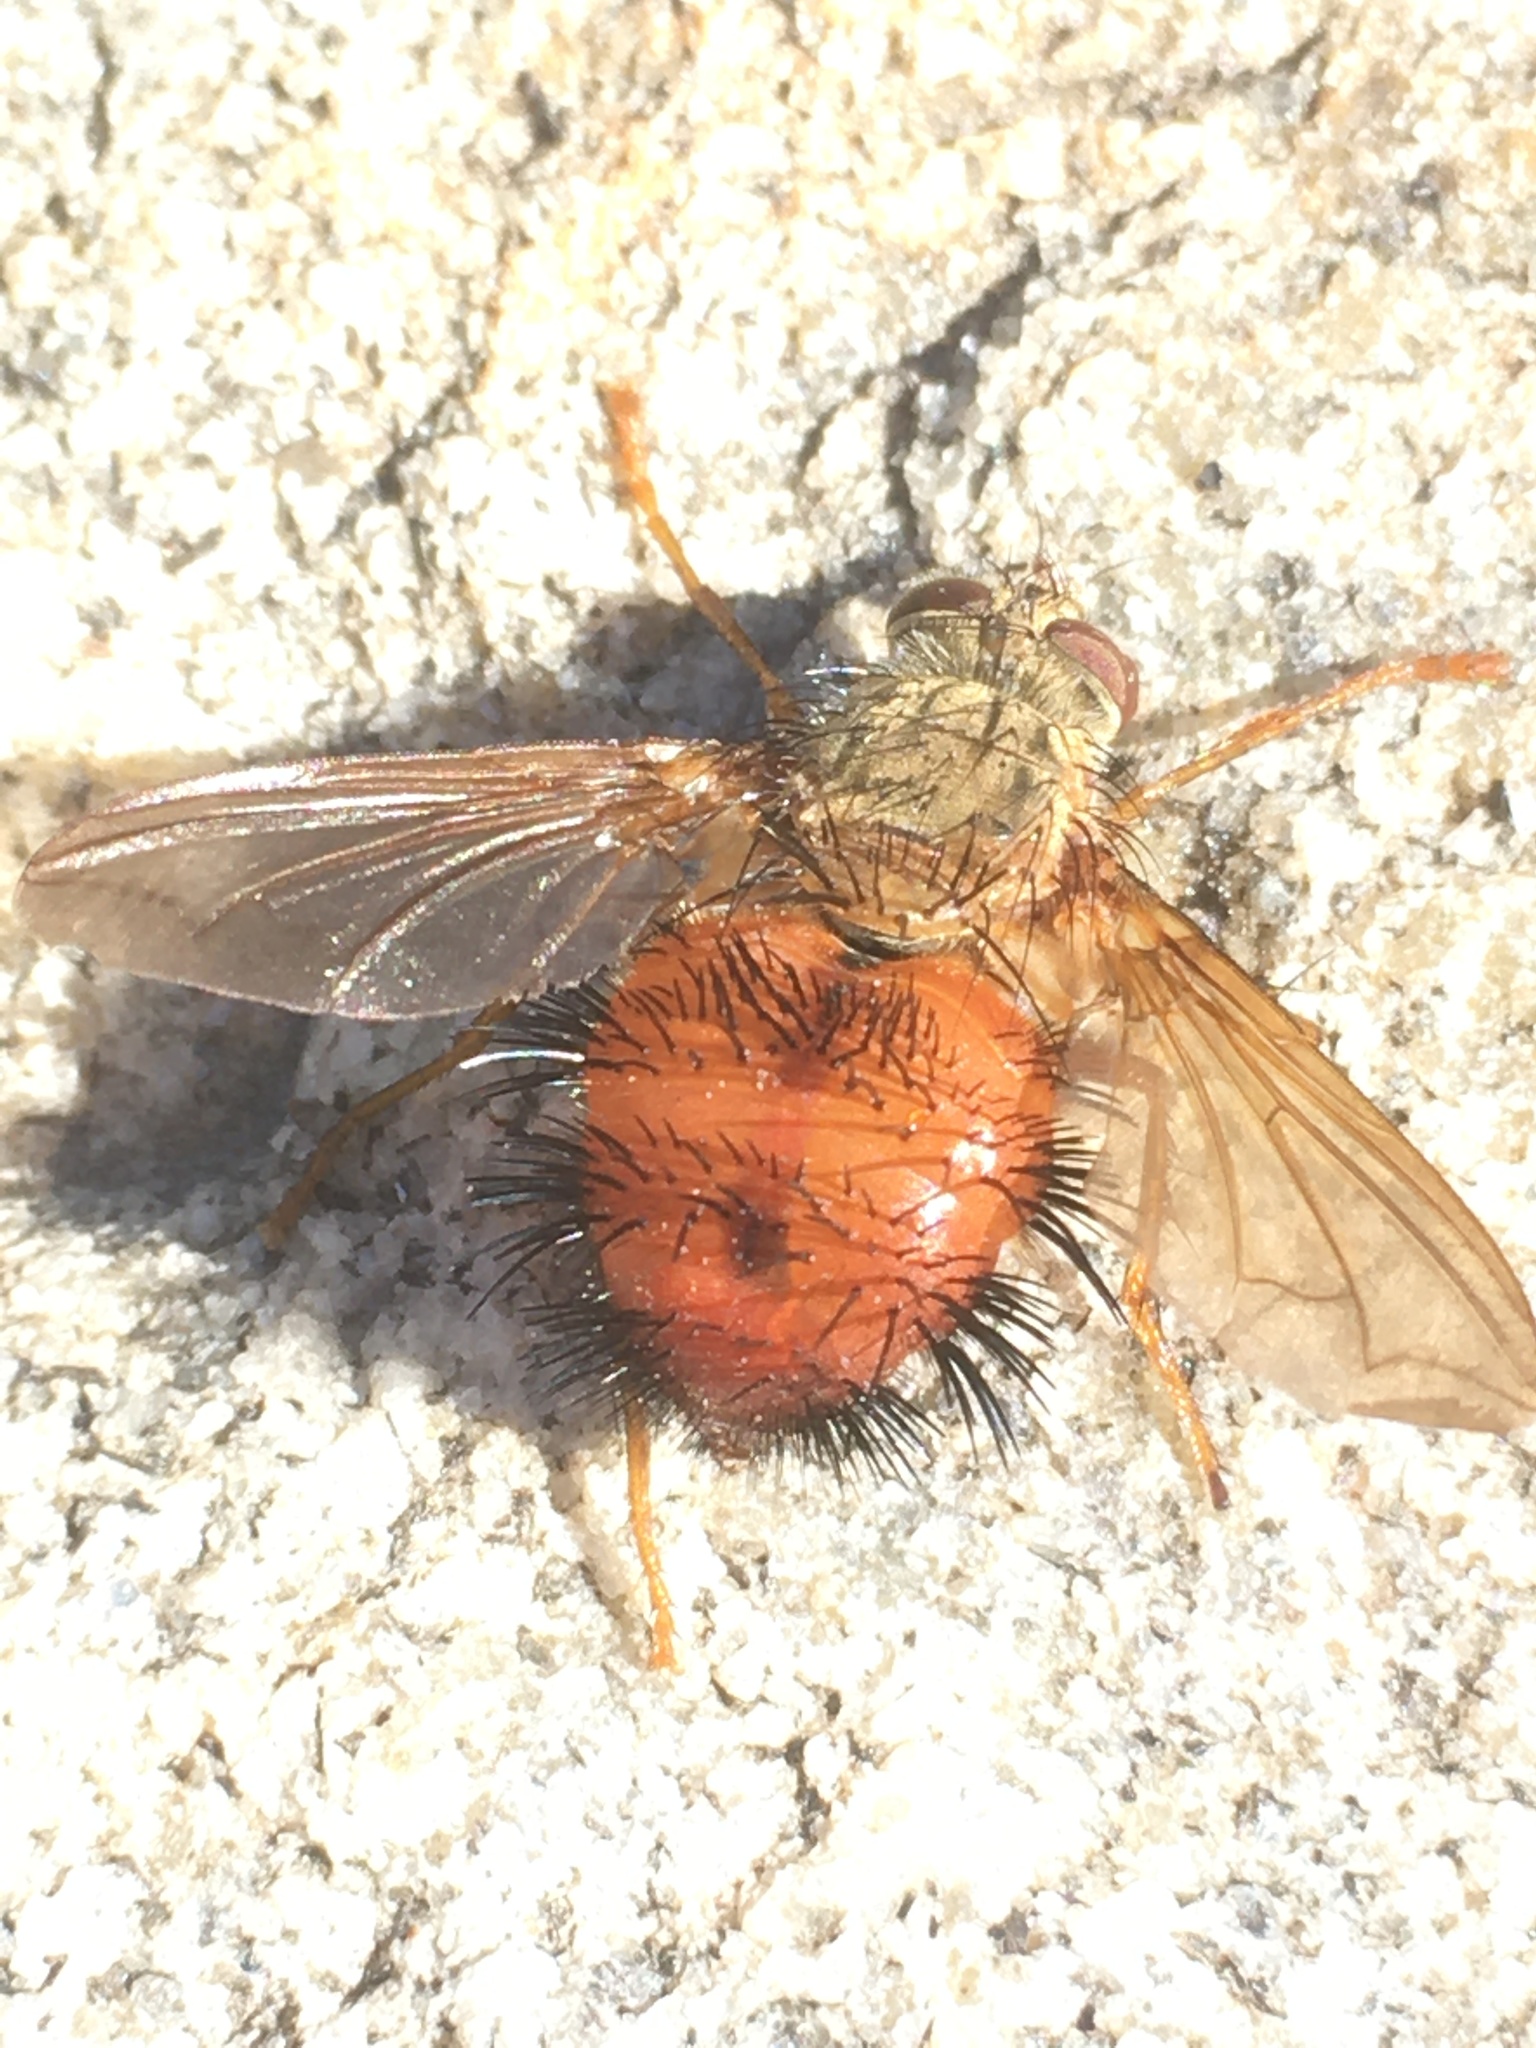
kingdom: Animalia
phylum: Arthropoda
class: Insecta
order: Diptera
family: Tachinidae
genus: Hystricia
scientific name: Hystricia abrupta
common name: Tomato bristle fly
